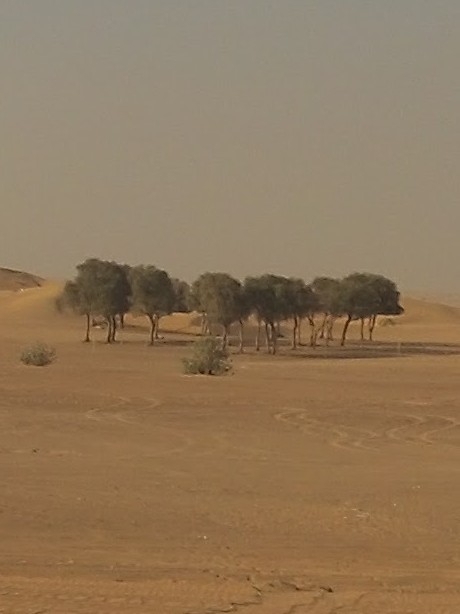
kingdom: Plantae
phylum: Tracheophyta
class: Magnoliopsida
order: Fabales
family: Fabaceae
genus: Prosopis
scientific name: Prosopis cineraria
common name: Jandi
